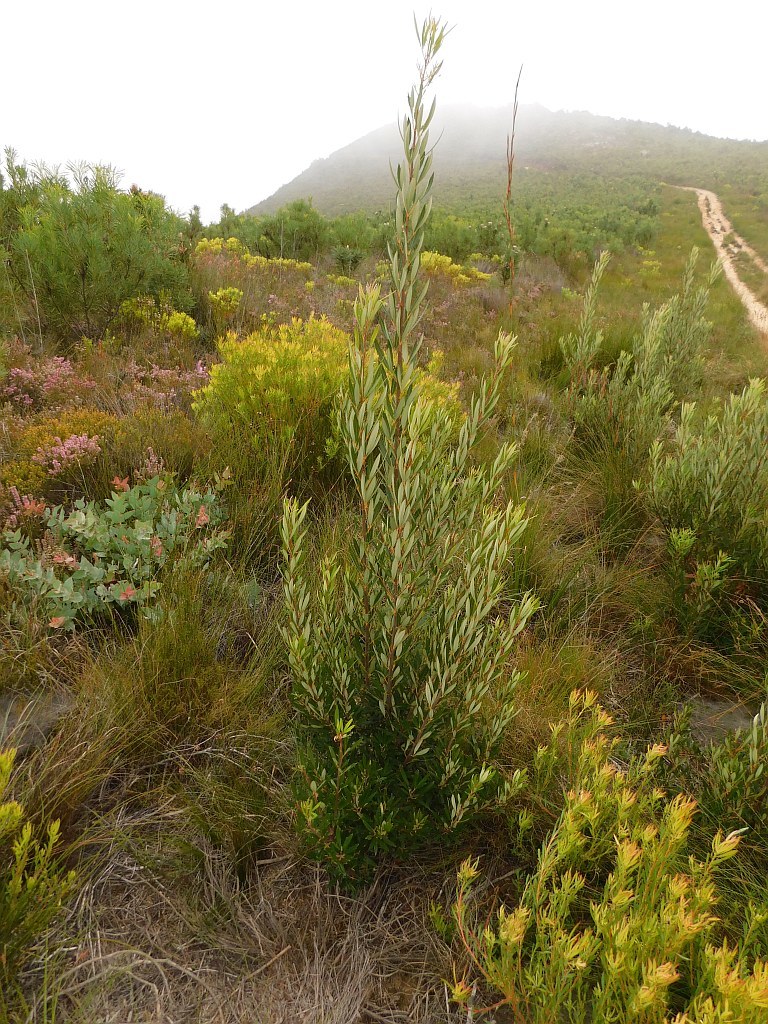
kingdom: Plantae
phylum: Tracheophyta
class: Magnoliopsida
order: Sapindales
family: Anacardiaceae
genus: Searsia
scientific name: Searsia angustifolia
